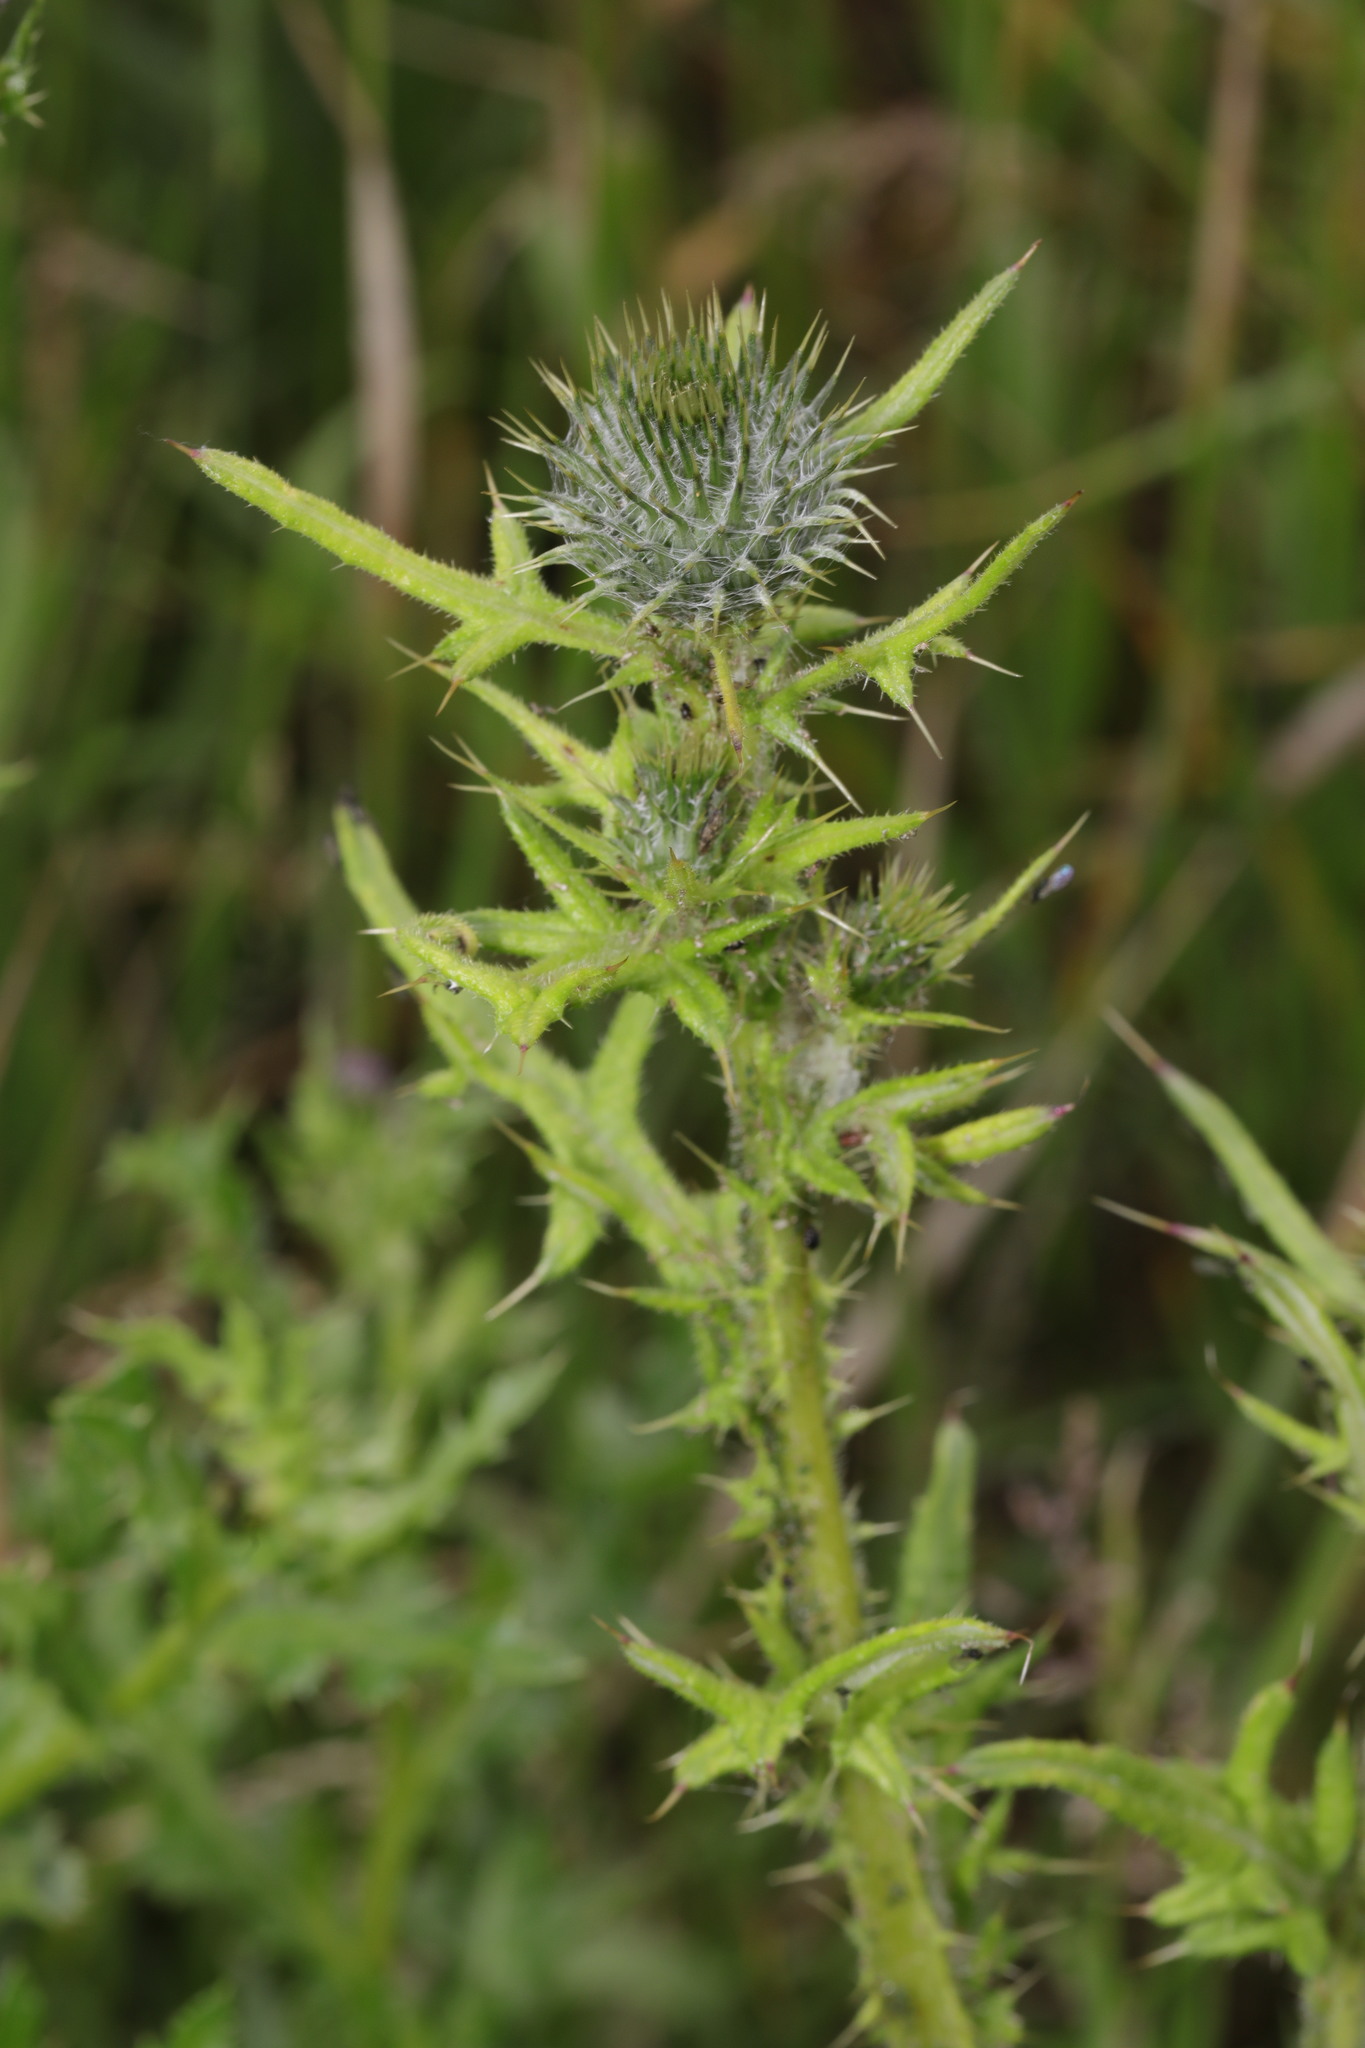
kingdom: Plantae
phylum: Tracheophyta
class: Magnoliopsida
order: Asterales
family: Asteraceae
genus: Cirsium
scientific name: Cirsium vulgare
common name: Bull thistle
